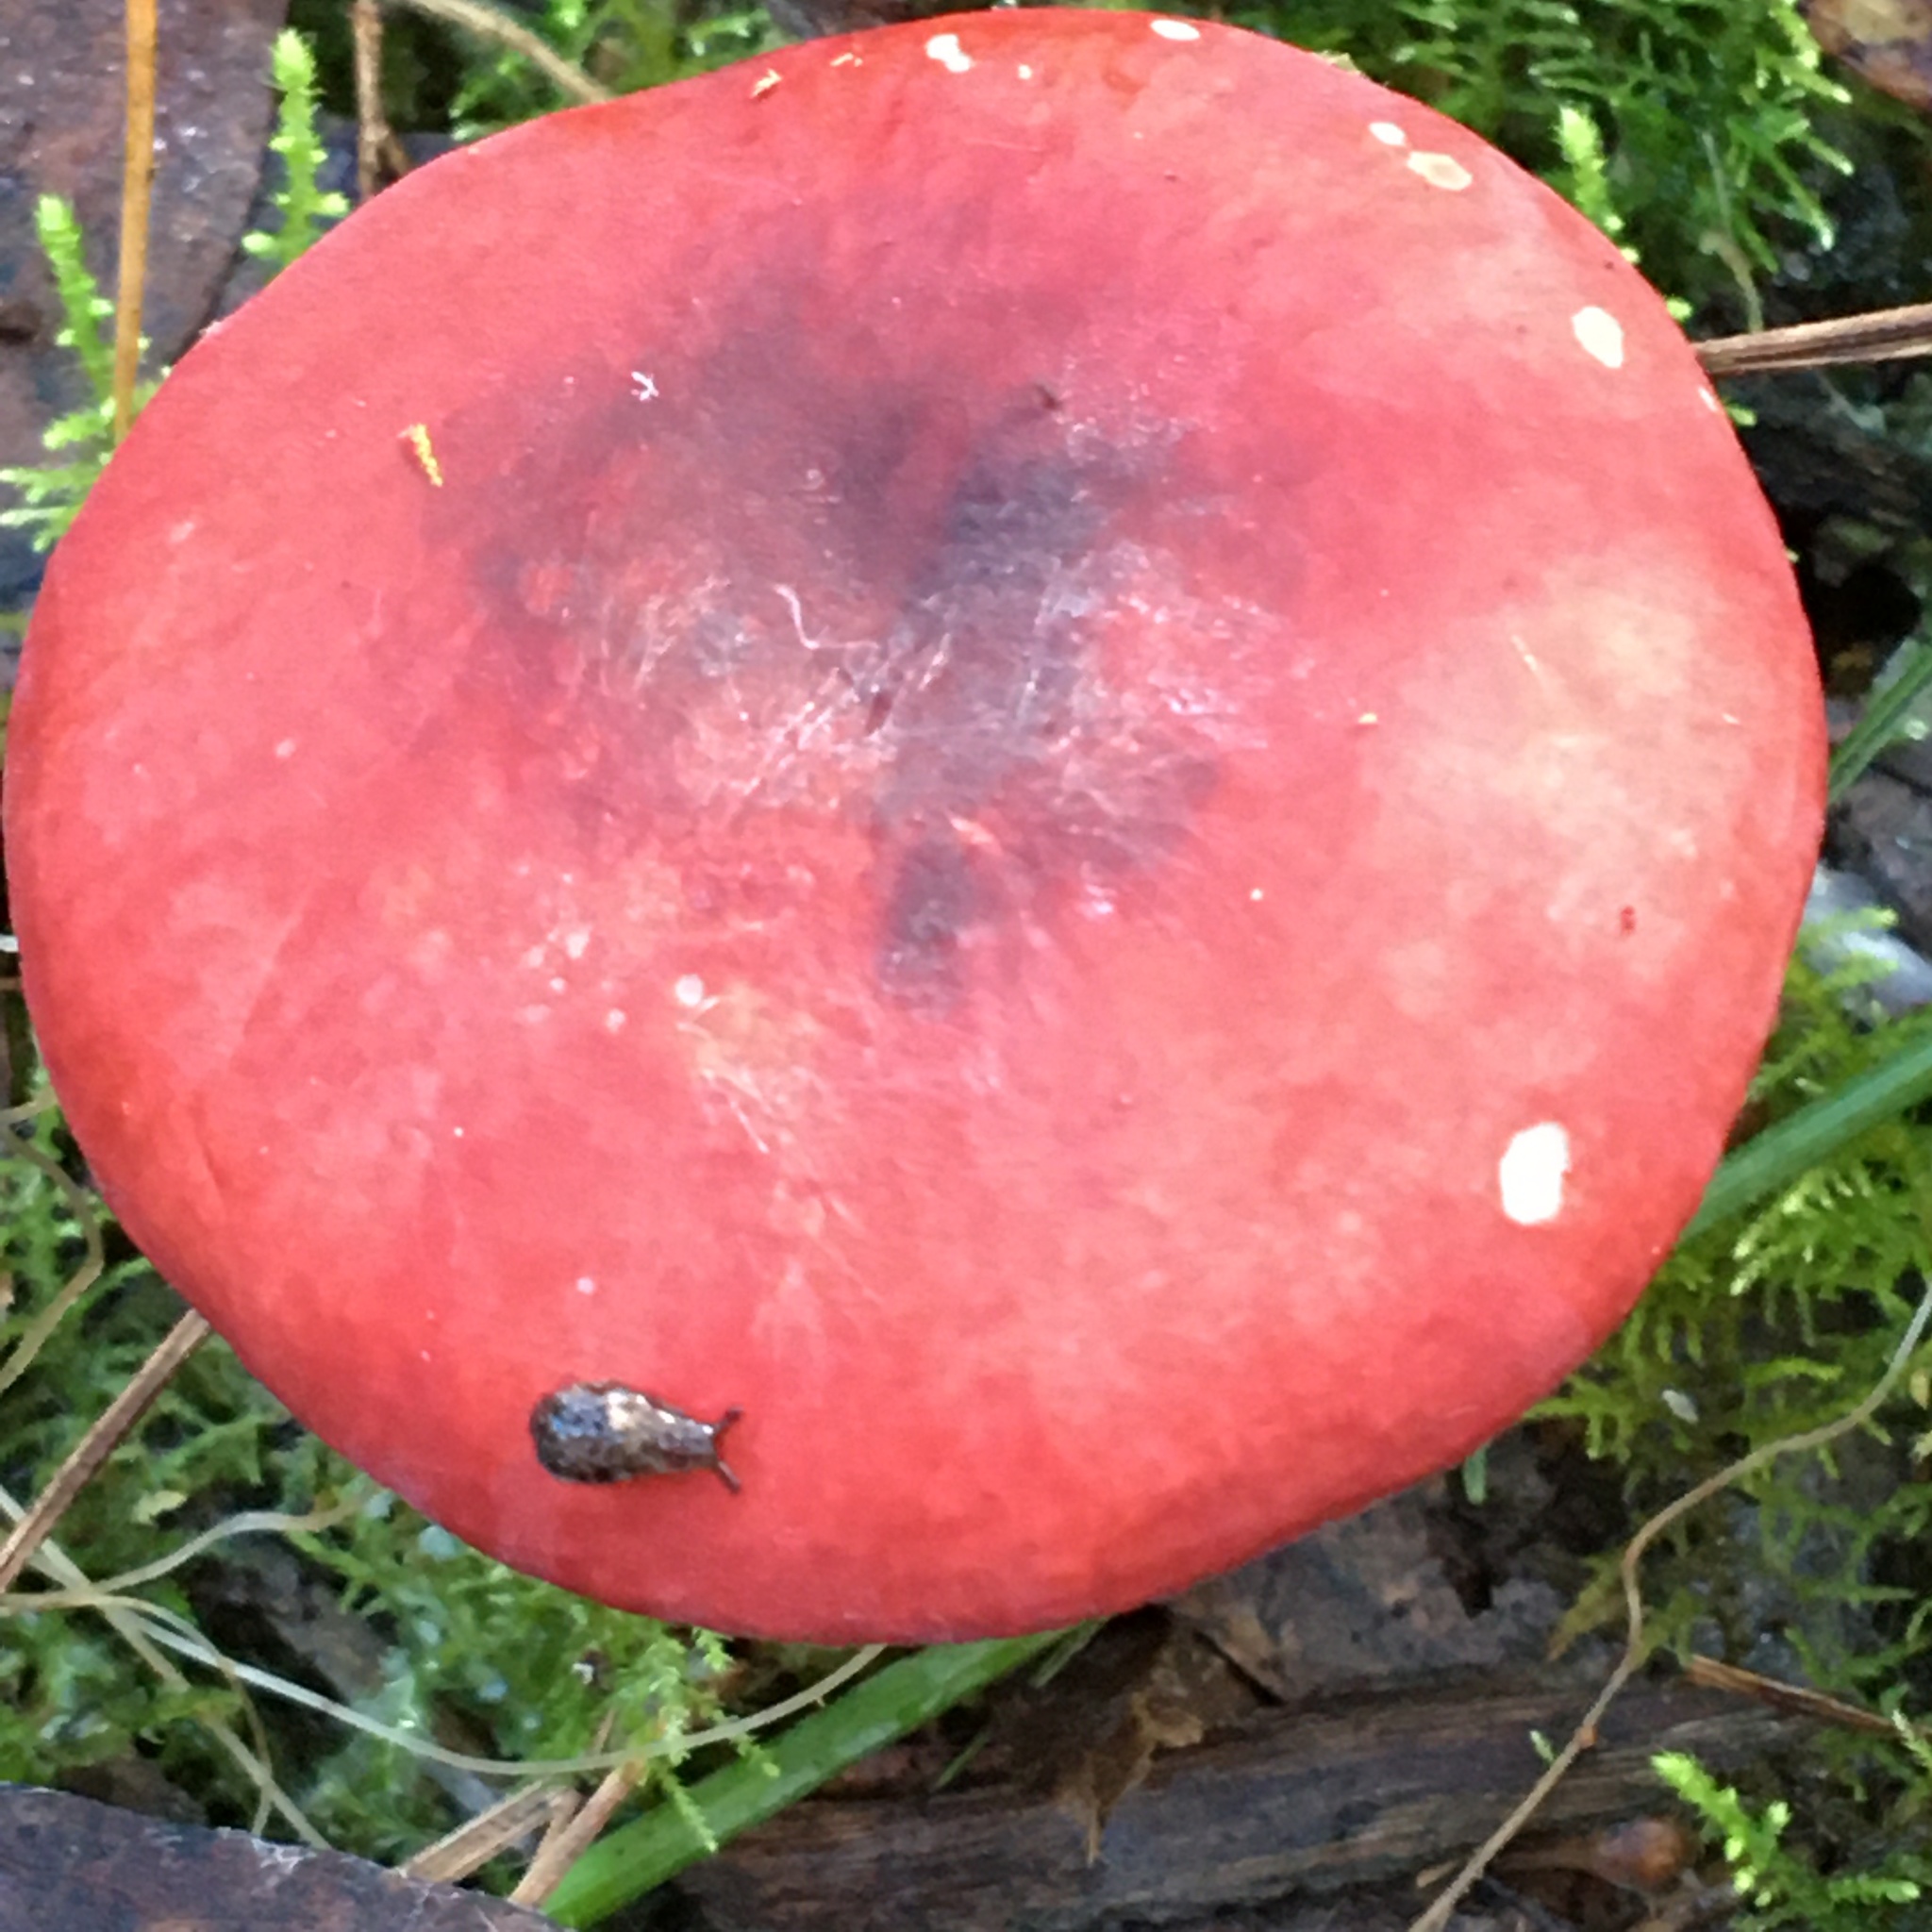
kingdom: Fungi
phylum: Basidiomycota
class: Agaricomycetes
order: Russulales
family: Russulaceae
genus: Russula
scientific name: Russula persanguinea
